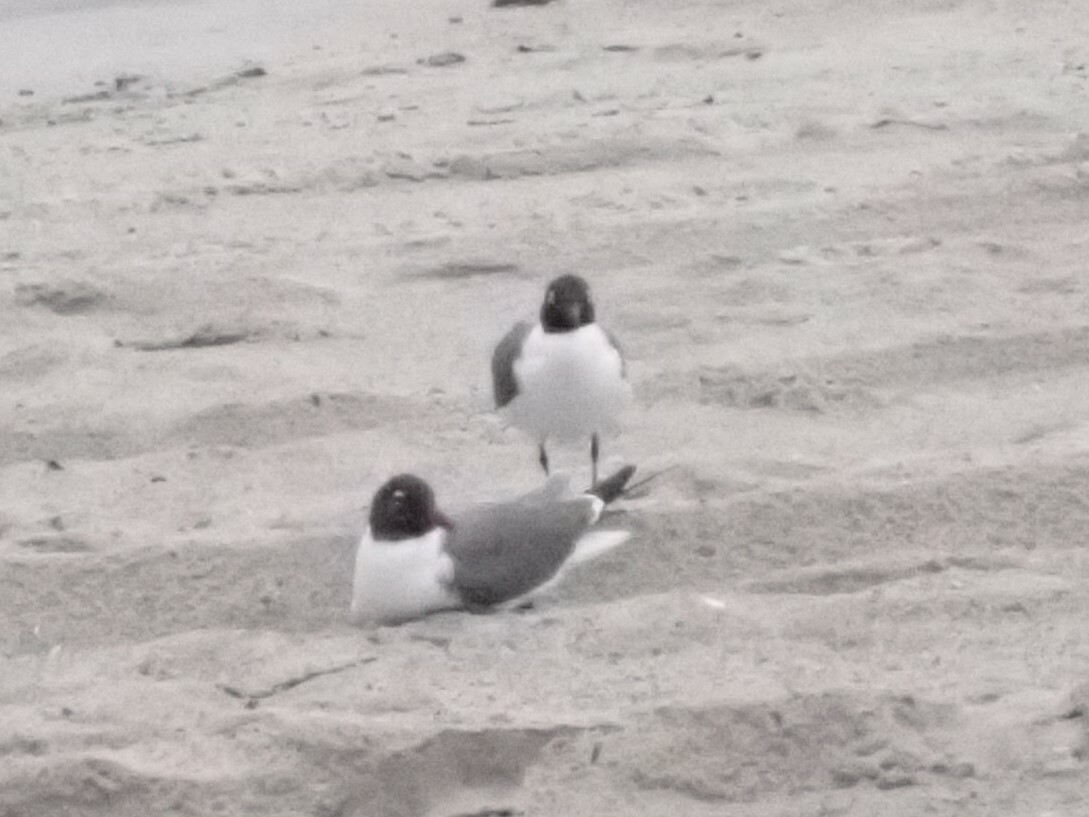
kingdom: Animalia
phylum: Chordata
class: Aves
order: Charadriiformes
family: Laridae
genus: Leucophaeus
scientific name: Leucophaeus atricilla
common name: Laughing gull
